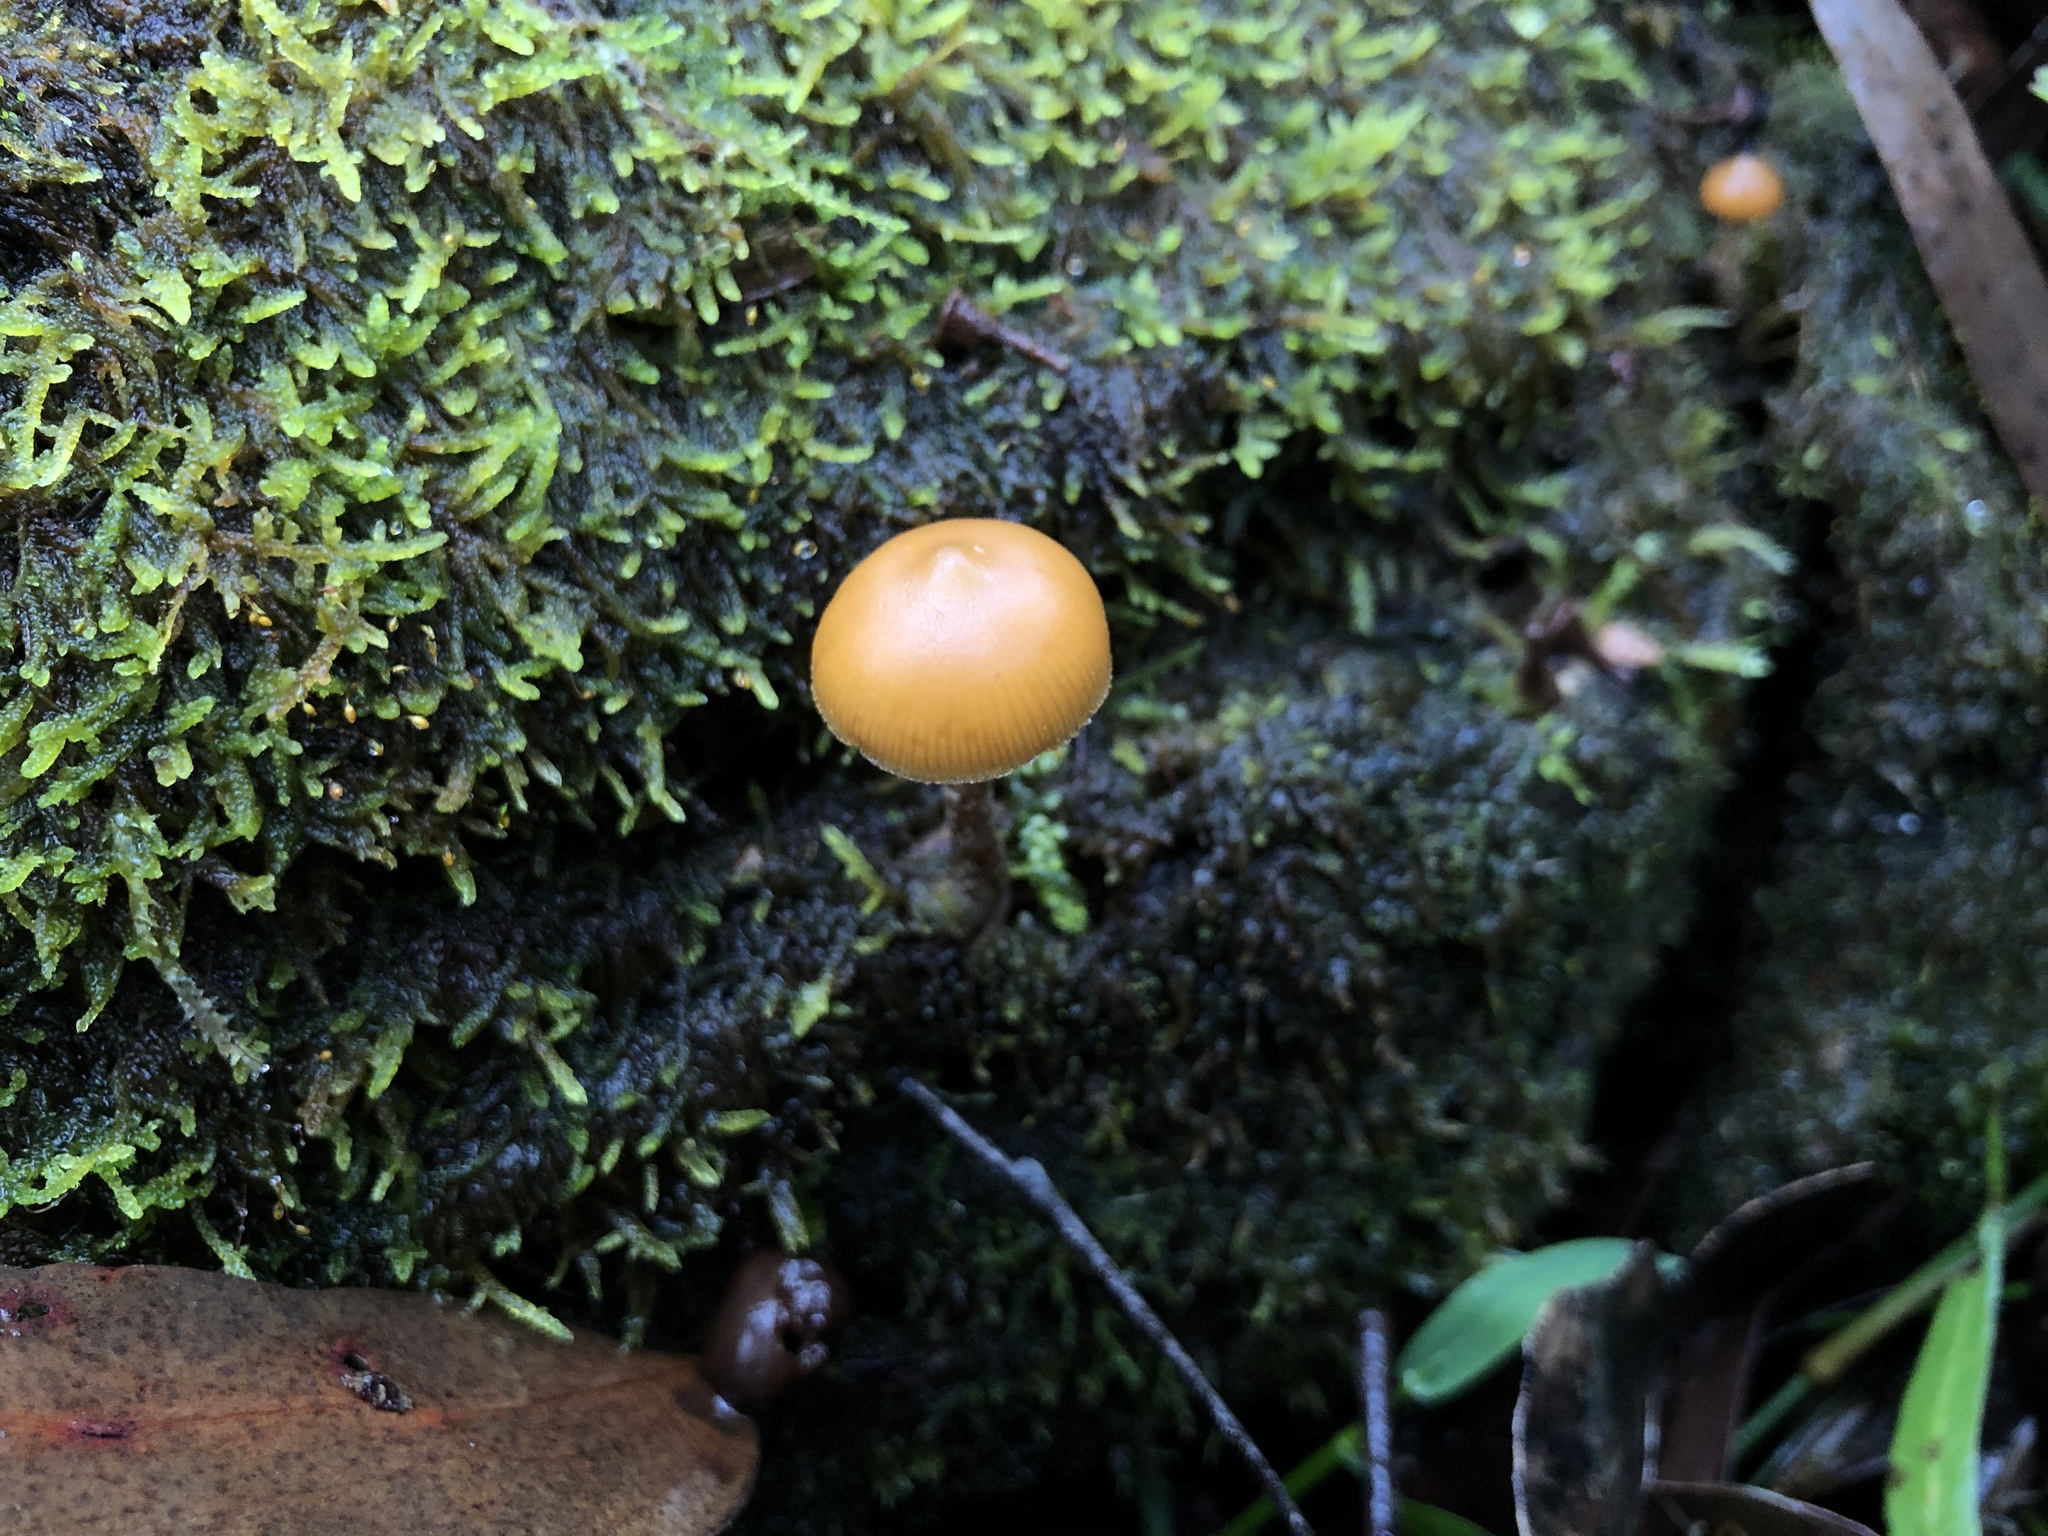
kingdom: Fungi
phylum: Basidiomycota
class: Agaricomycetes
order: Agaricales
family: Hymenogastraceae
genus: Galerina
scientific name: Galerina patagonica
